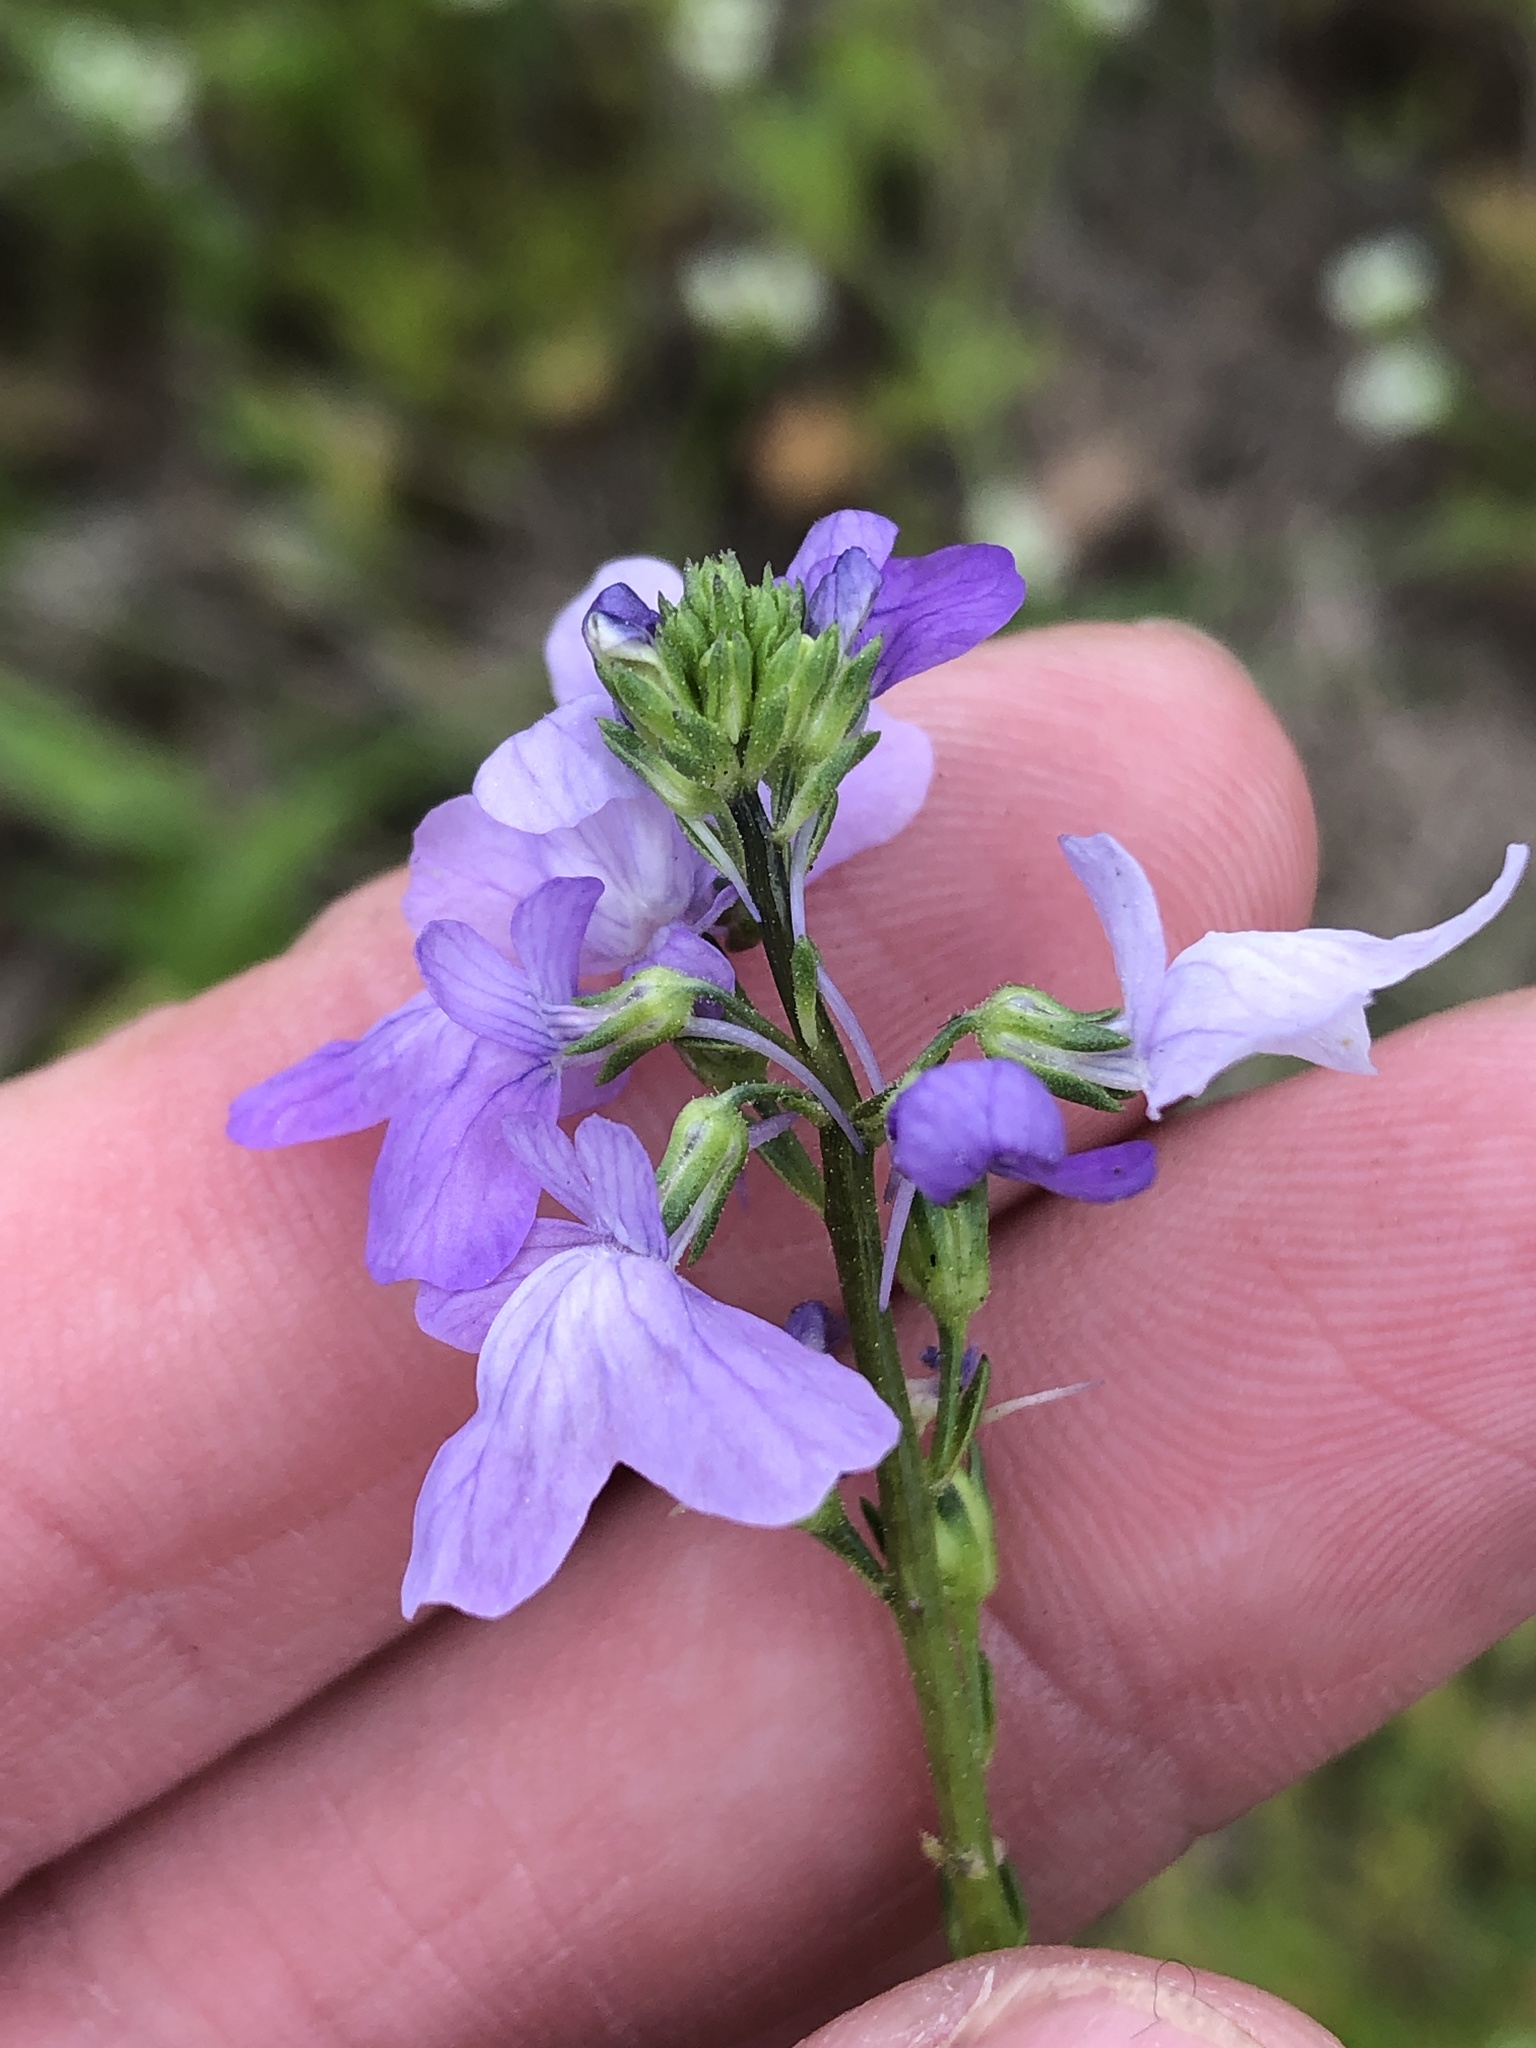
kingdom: Plantae
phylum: Tracheophyta
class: Magnoliopsida
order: Lamiales
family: Plantaginaceae
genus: Nuttallanthus
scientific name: Nuttallanthus texanus
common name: Texas toadflax
